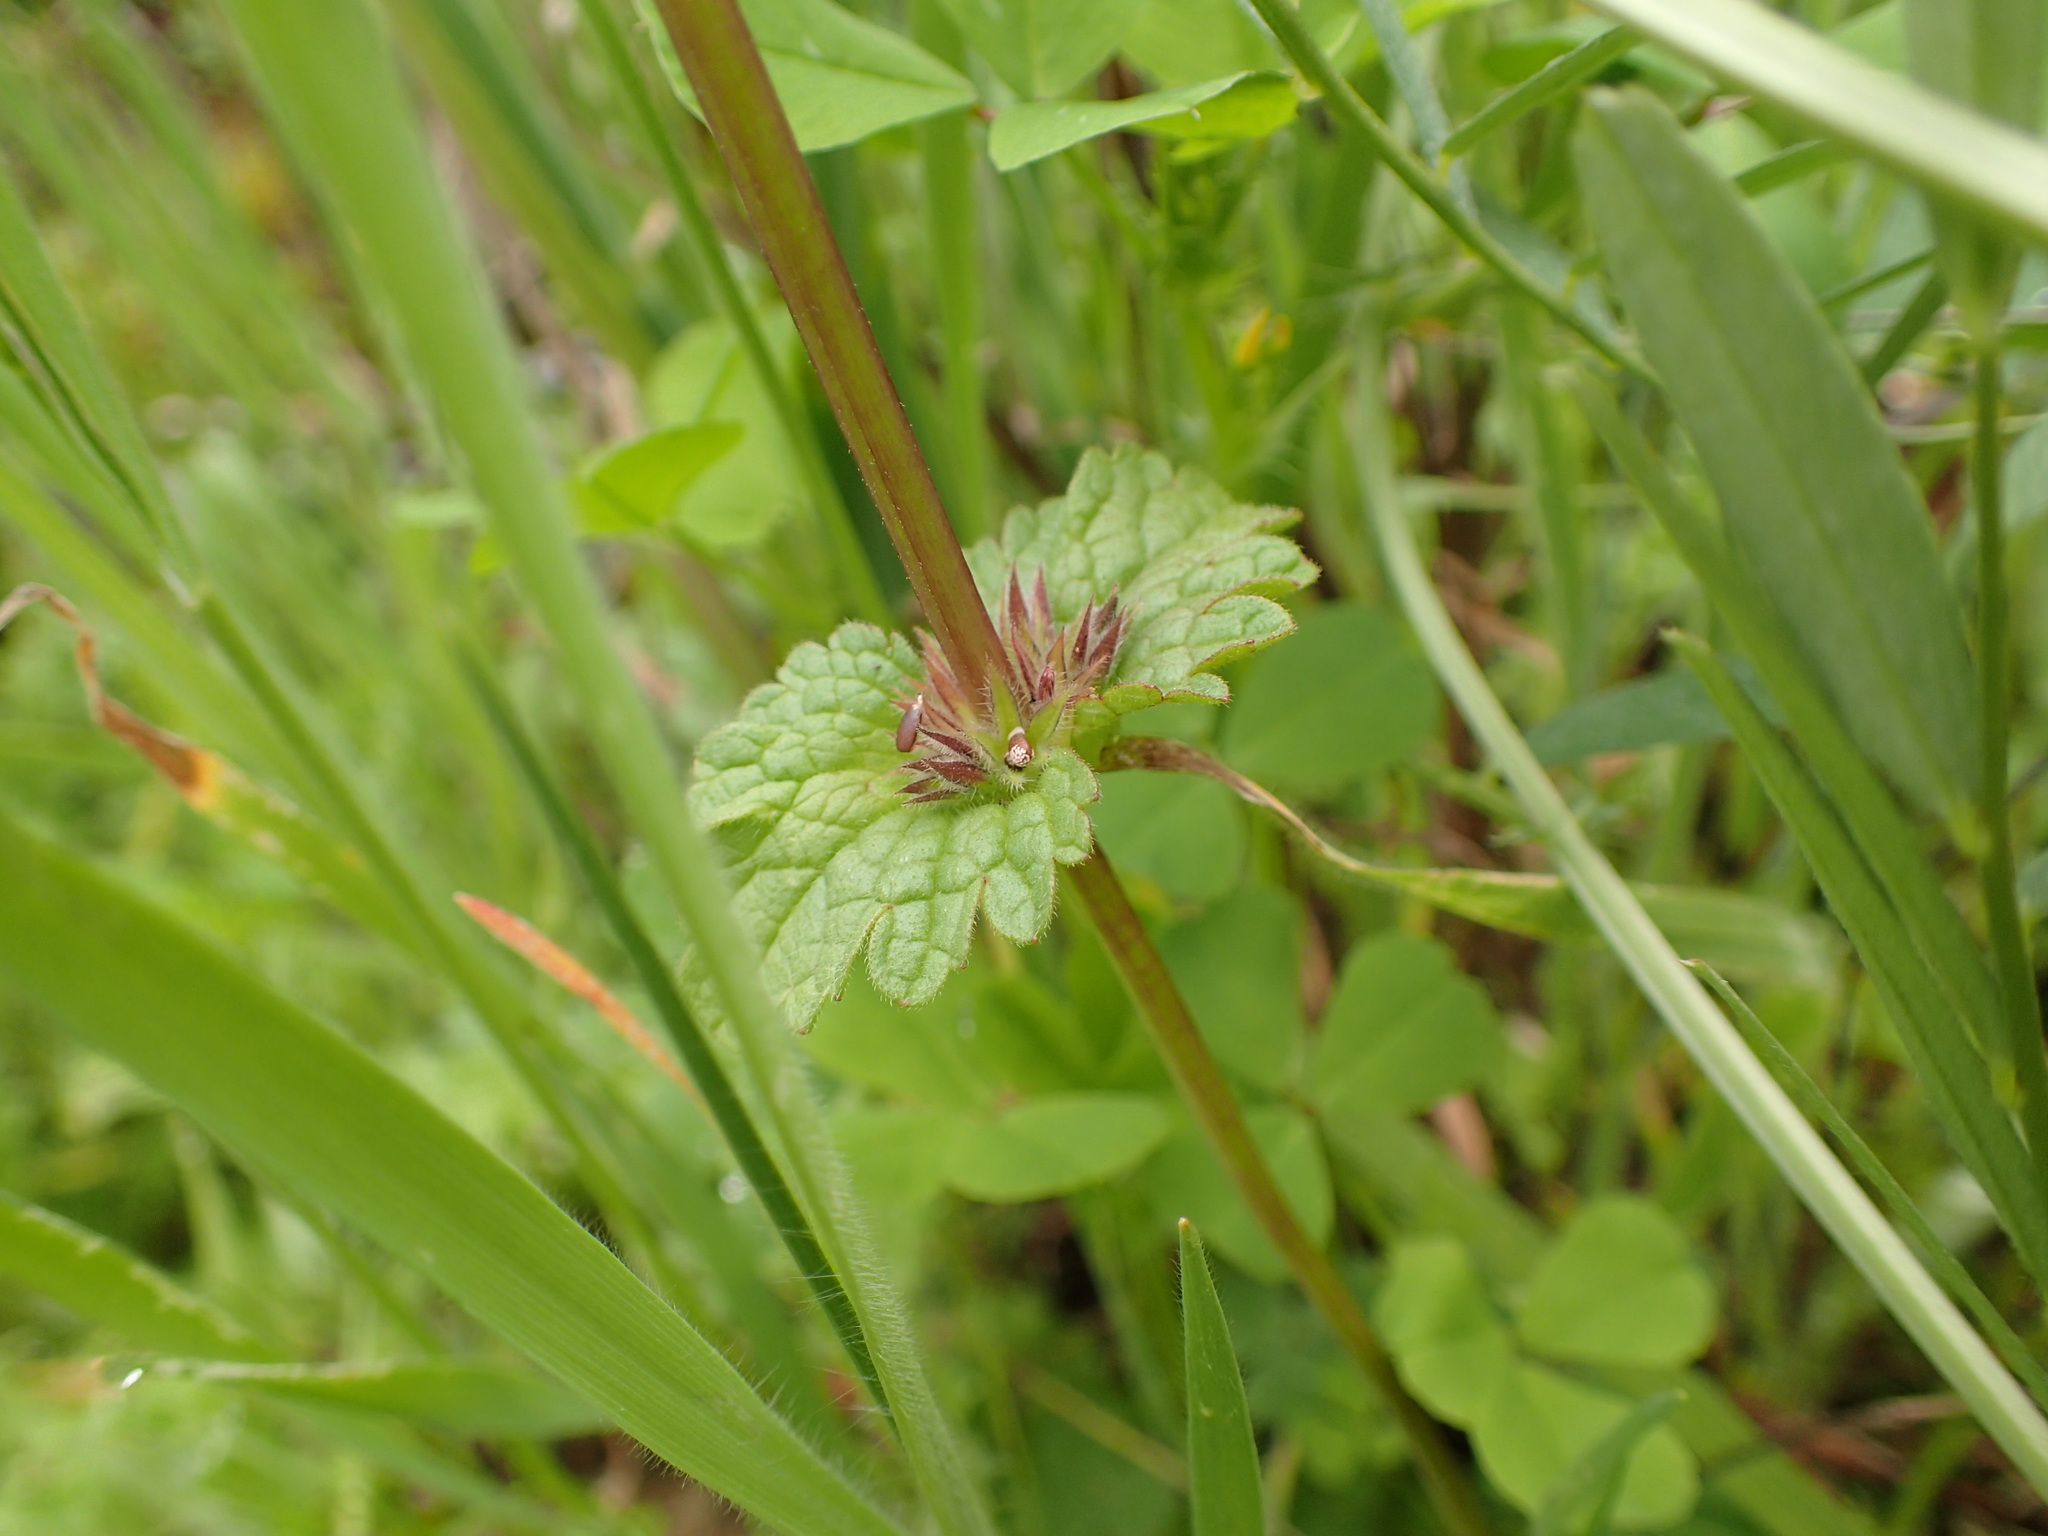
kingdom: Plantae
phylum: Tracheophyta
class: Magnoliopsida
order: Lamiales
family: Lamiaceae
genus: Lamium
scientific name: Lamium amplexicaule
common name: Henbit dead-nettle
